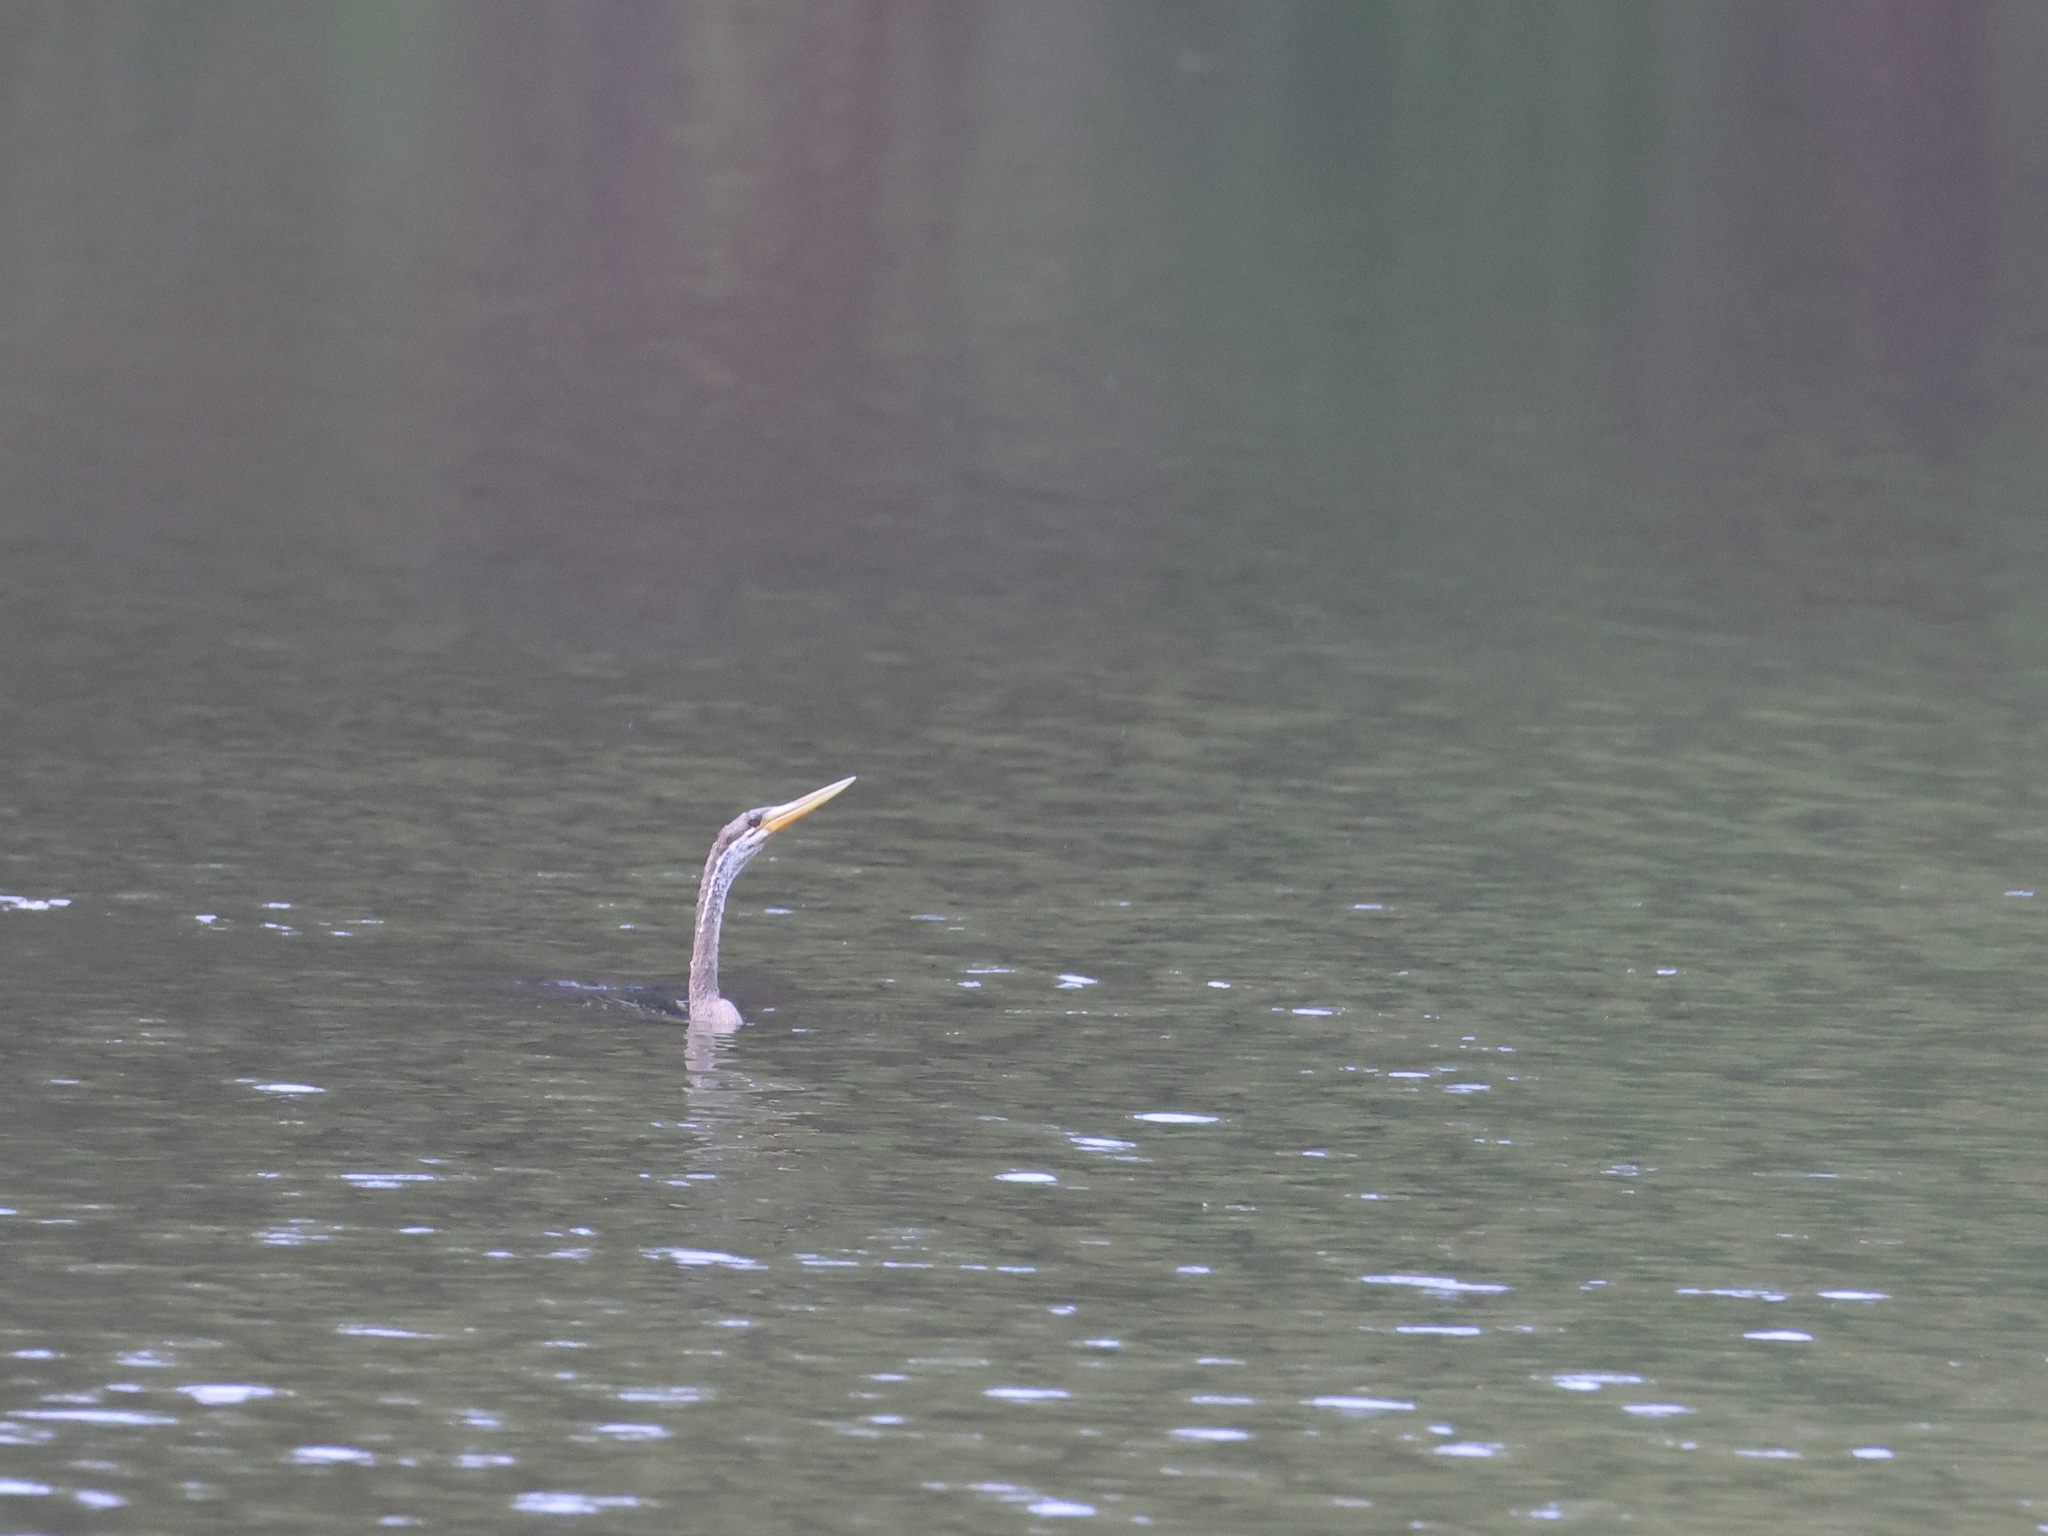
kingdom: Animalia
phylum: Chordata
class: Aves
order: Suliformes
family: Anhingidae
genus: Anhinga
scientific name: Anhinga melanogaster
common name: Oriental darter
